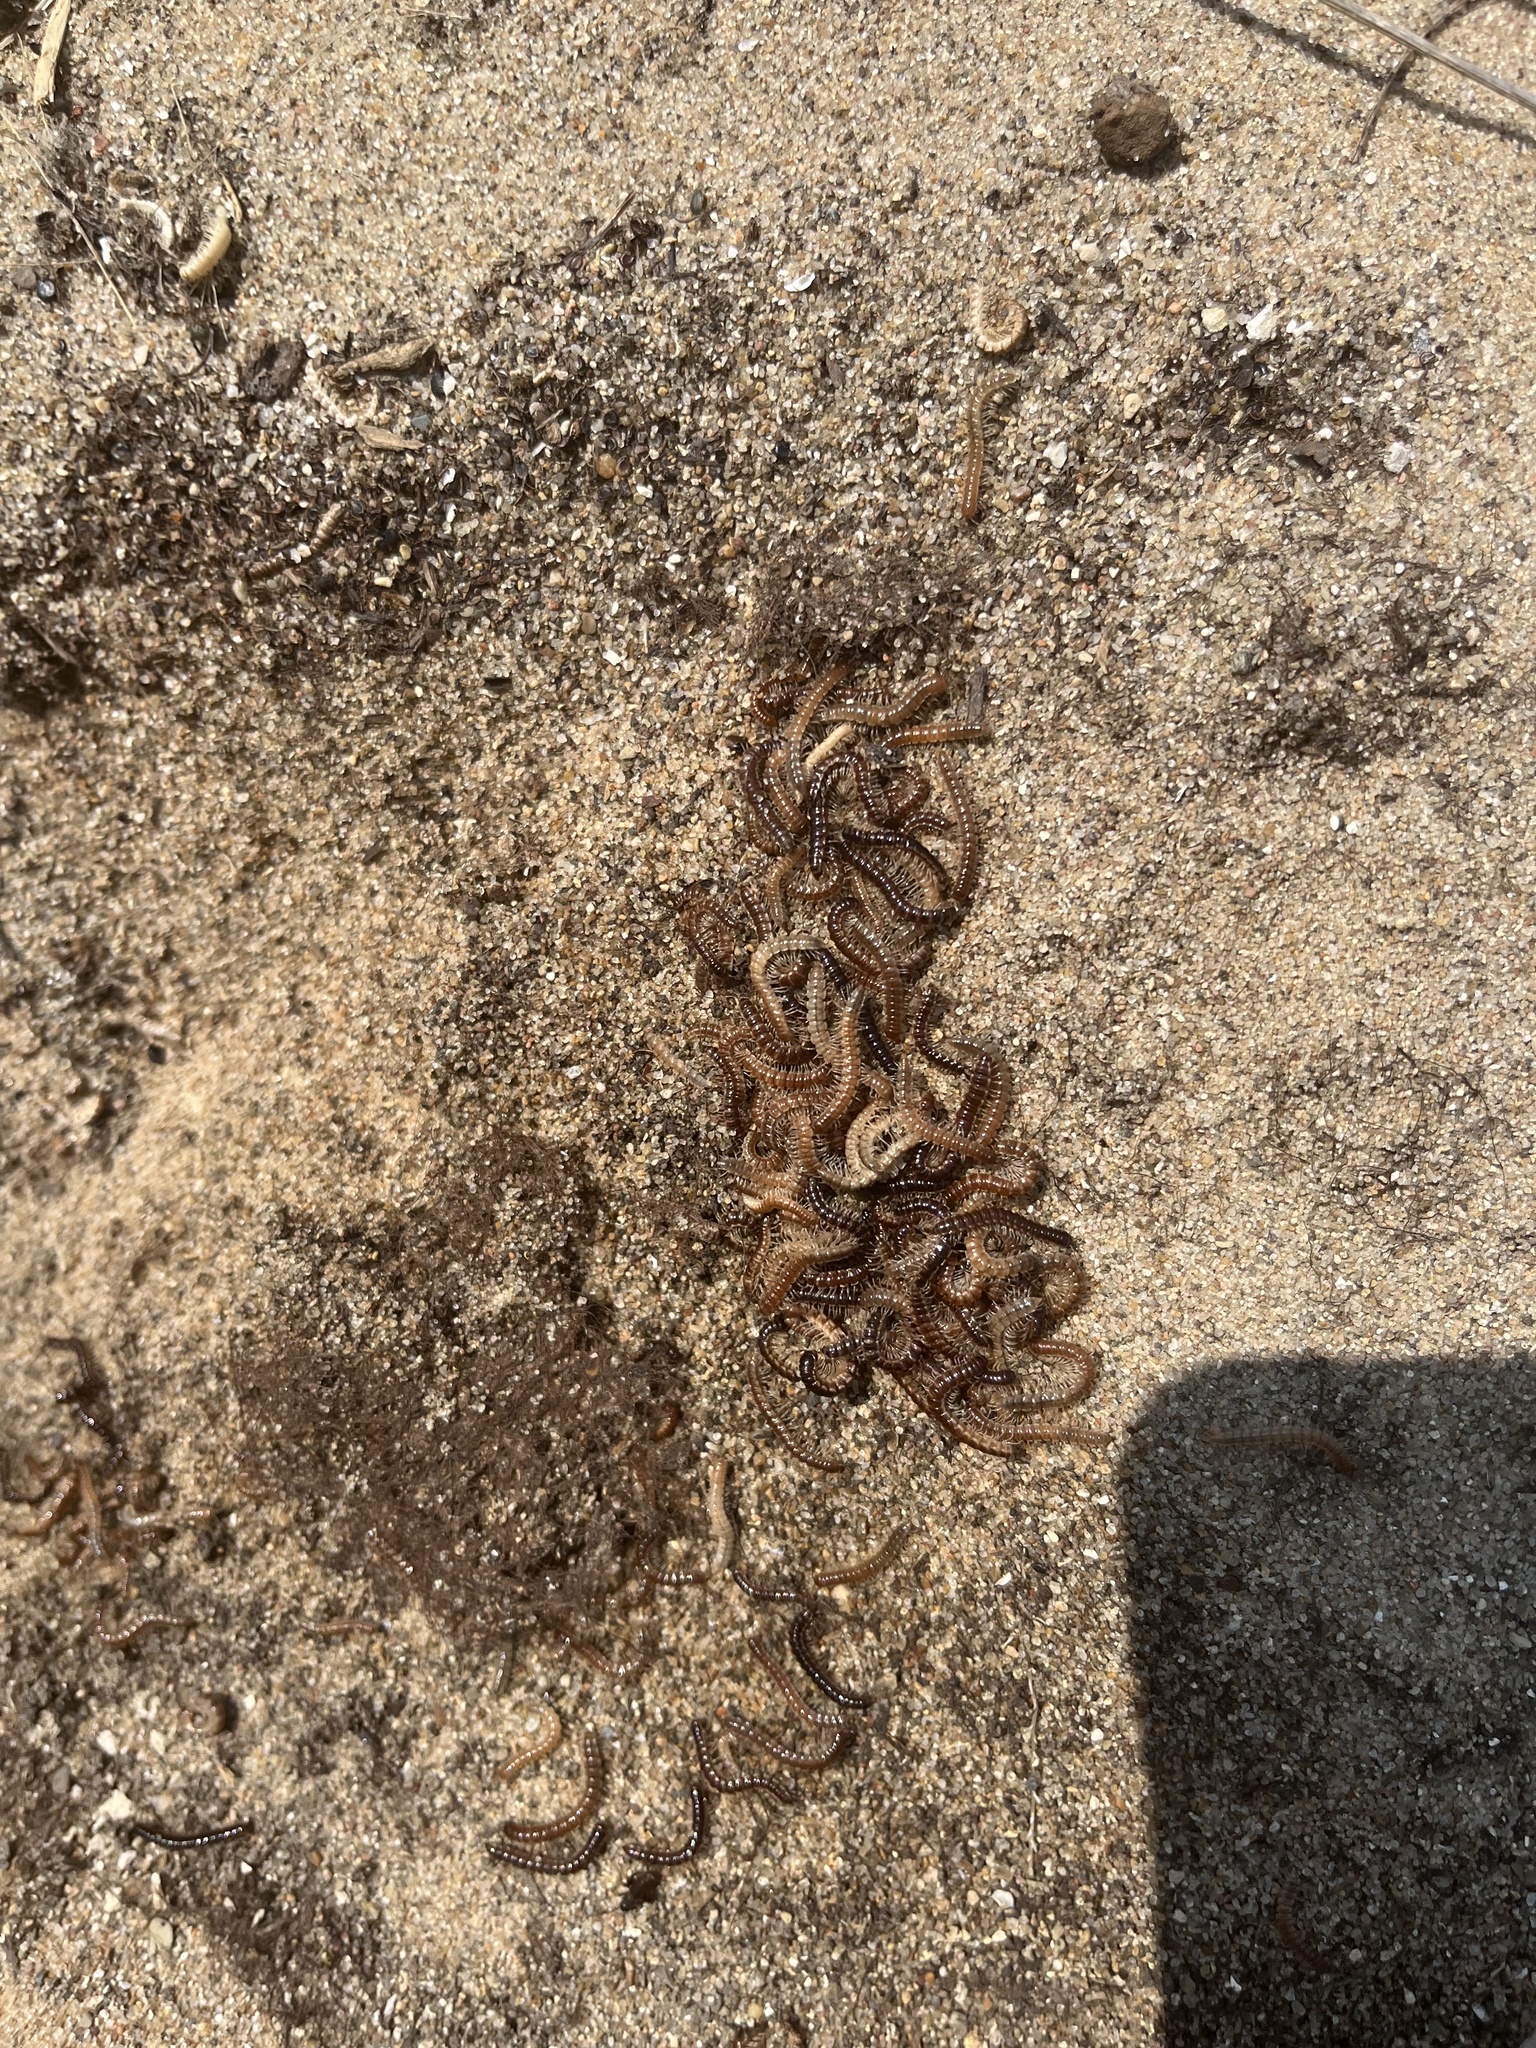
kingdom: Animalia
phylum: Arthropoda
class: Diplopoda
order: Polydesmida
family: Paradoxosomatidae
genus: Oxidus
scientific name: Oxidus gracilis
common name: Greenhouse millipede
